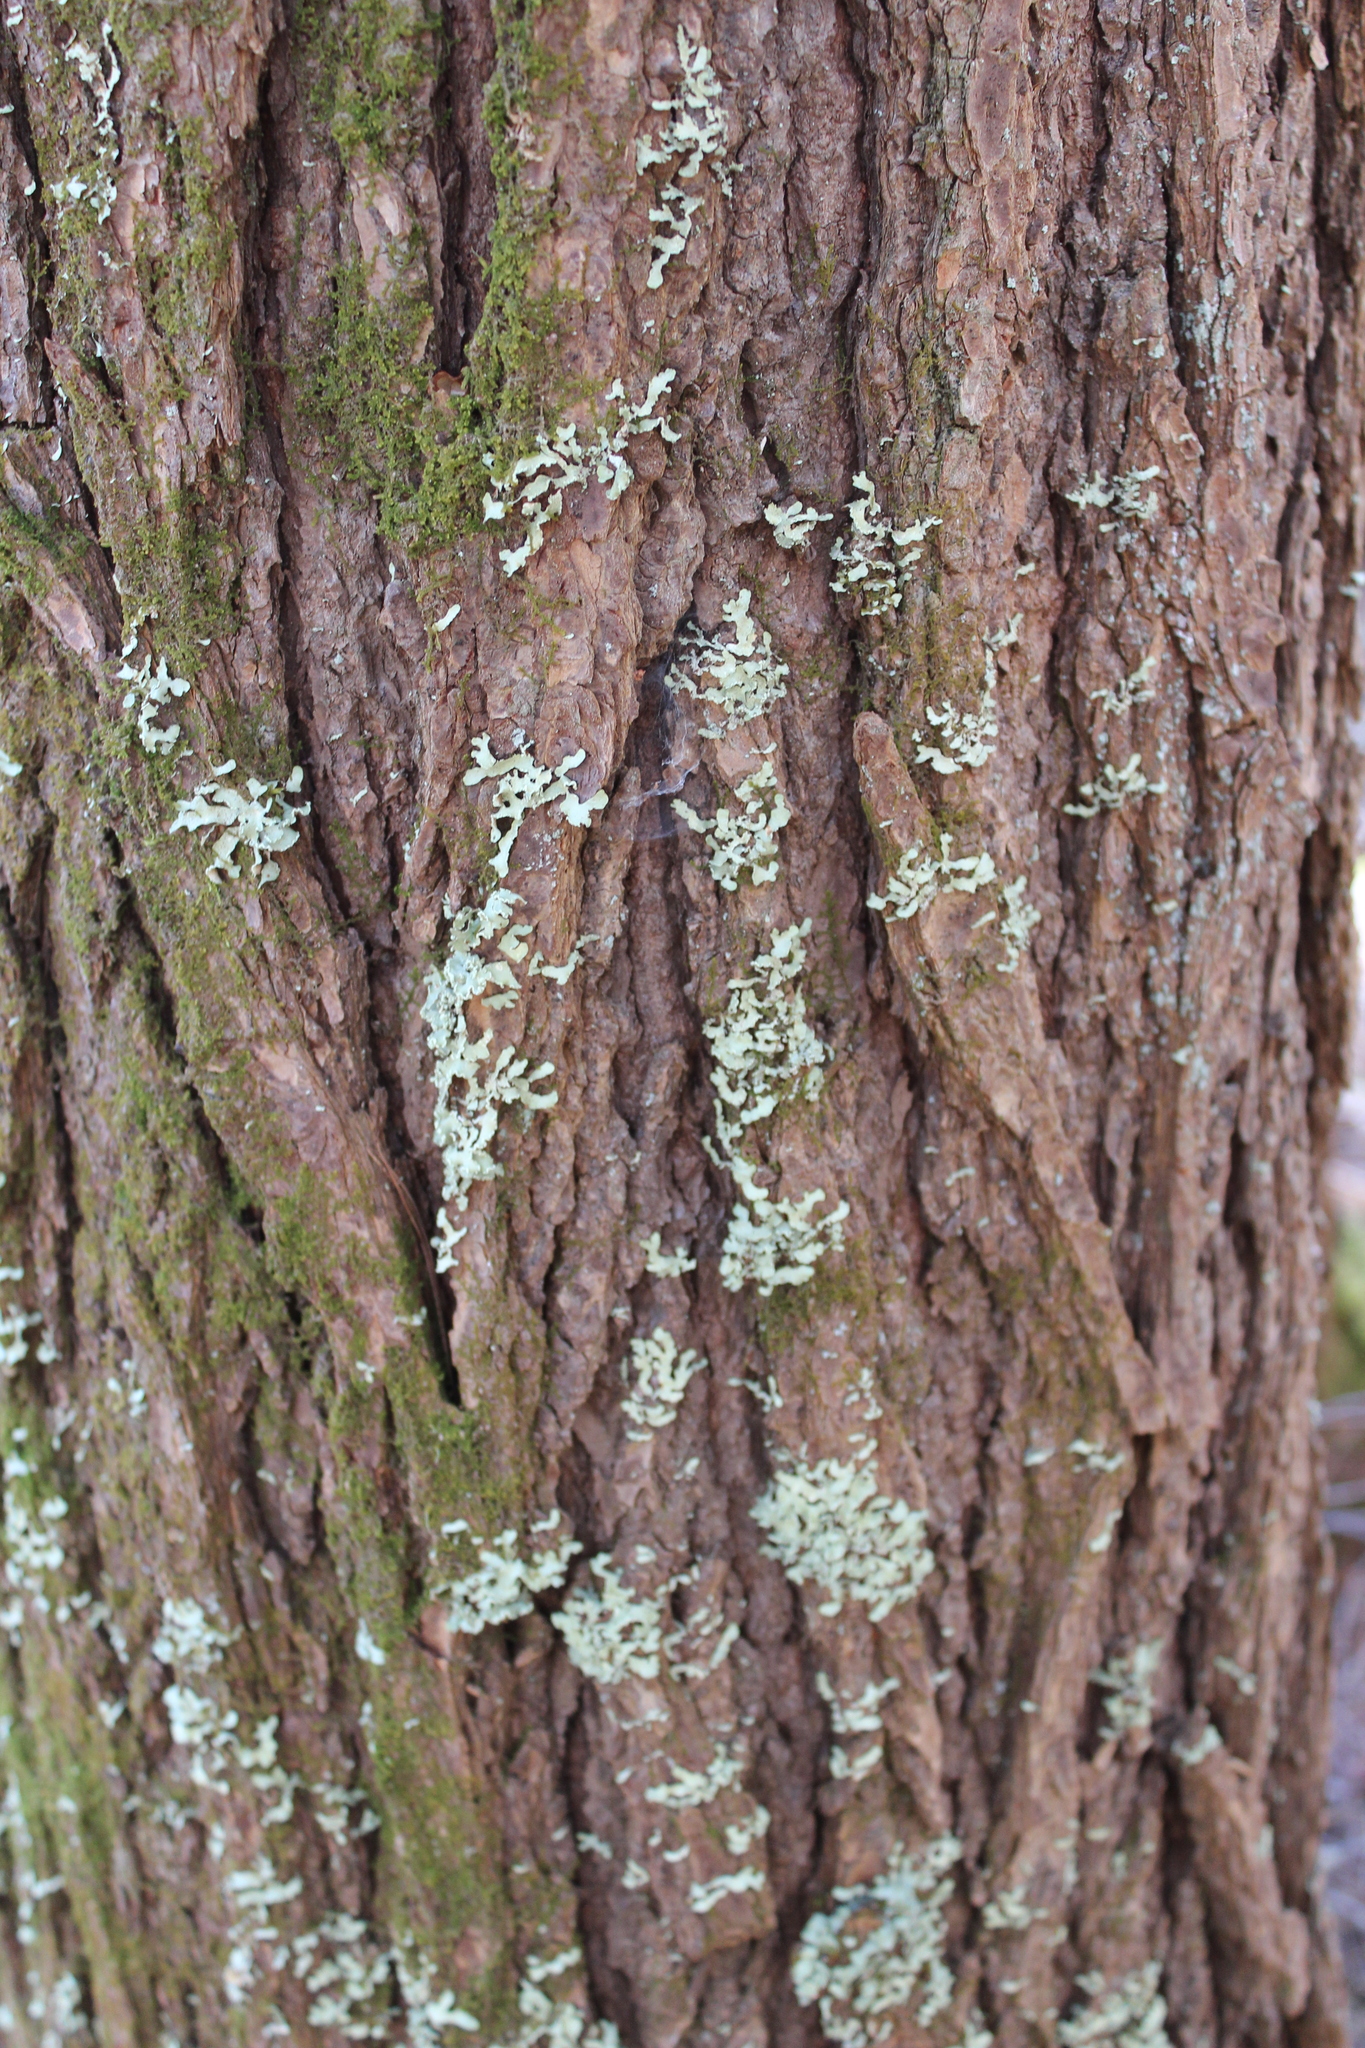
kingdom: Fungi
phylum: Ascomycota
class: Lecanoromycetes
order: Lecanorales
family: Parmeliaceae
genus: Usnocetraria
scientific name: Usnocetraria oakesiana
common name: Yellow ribbon lichen
